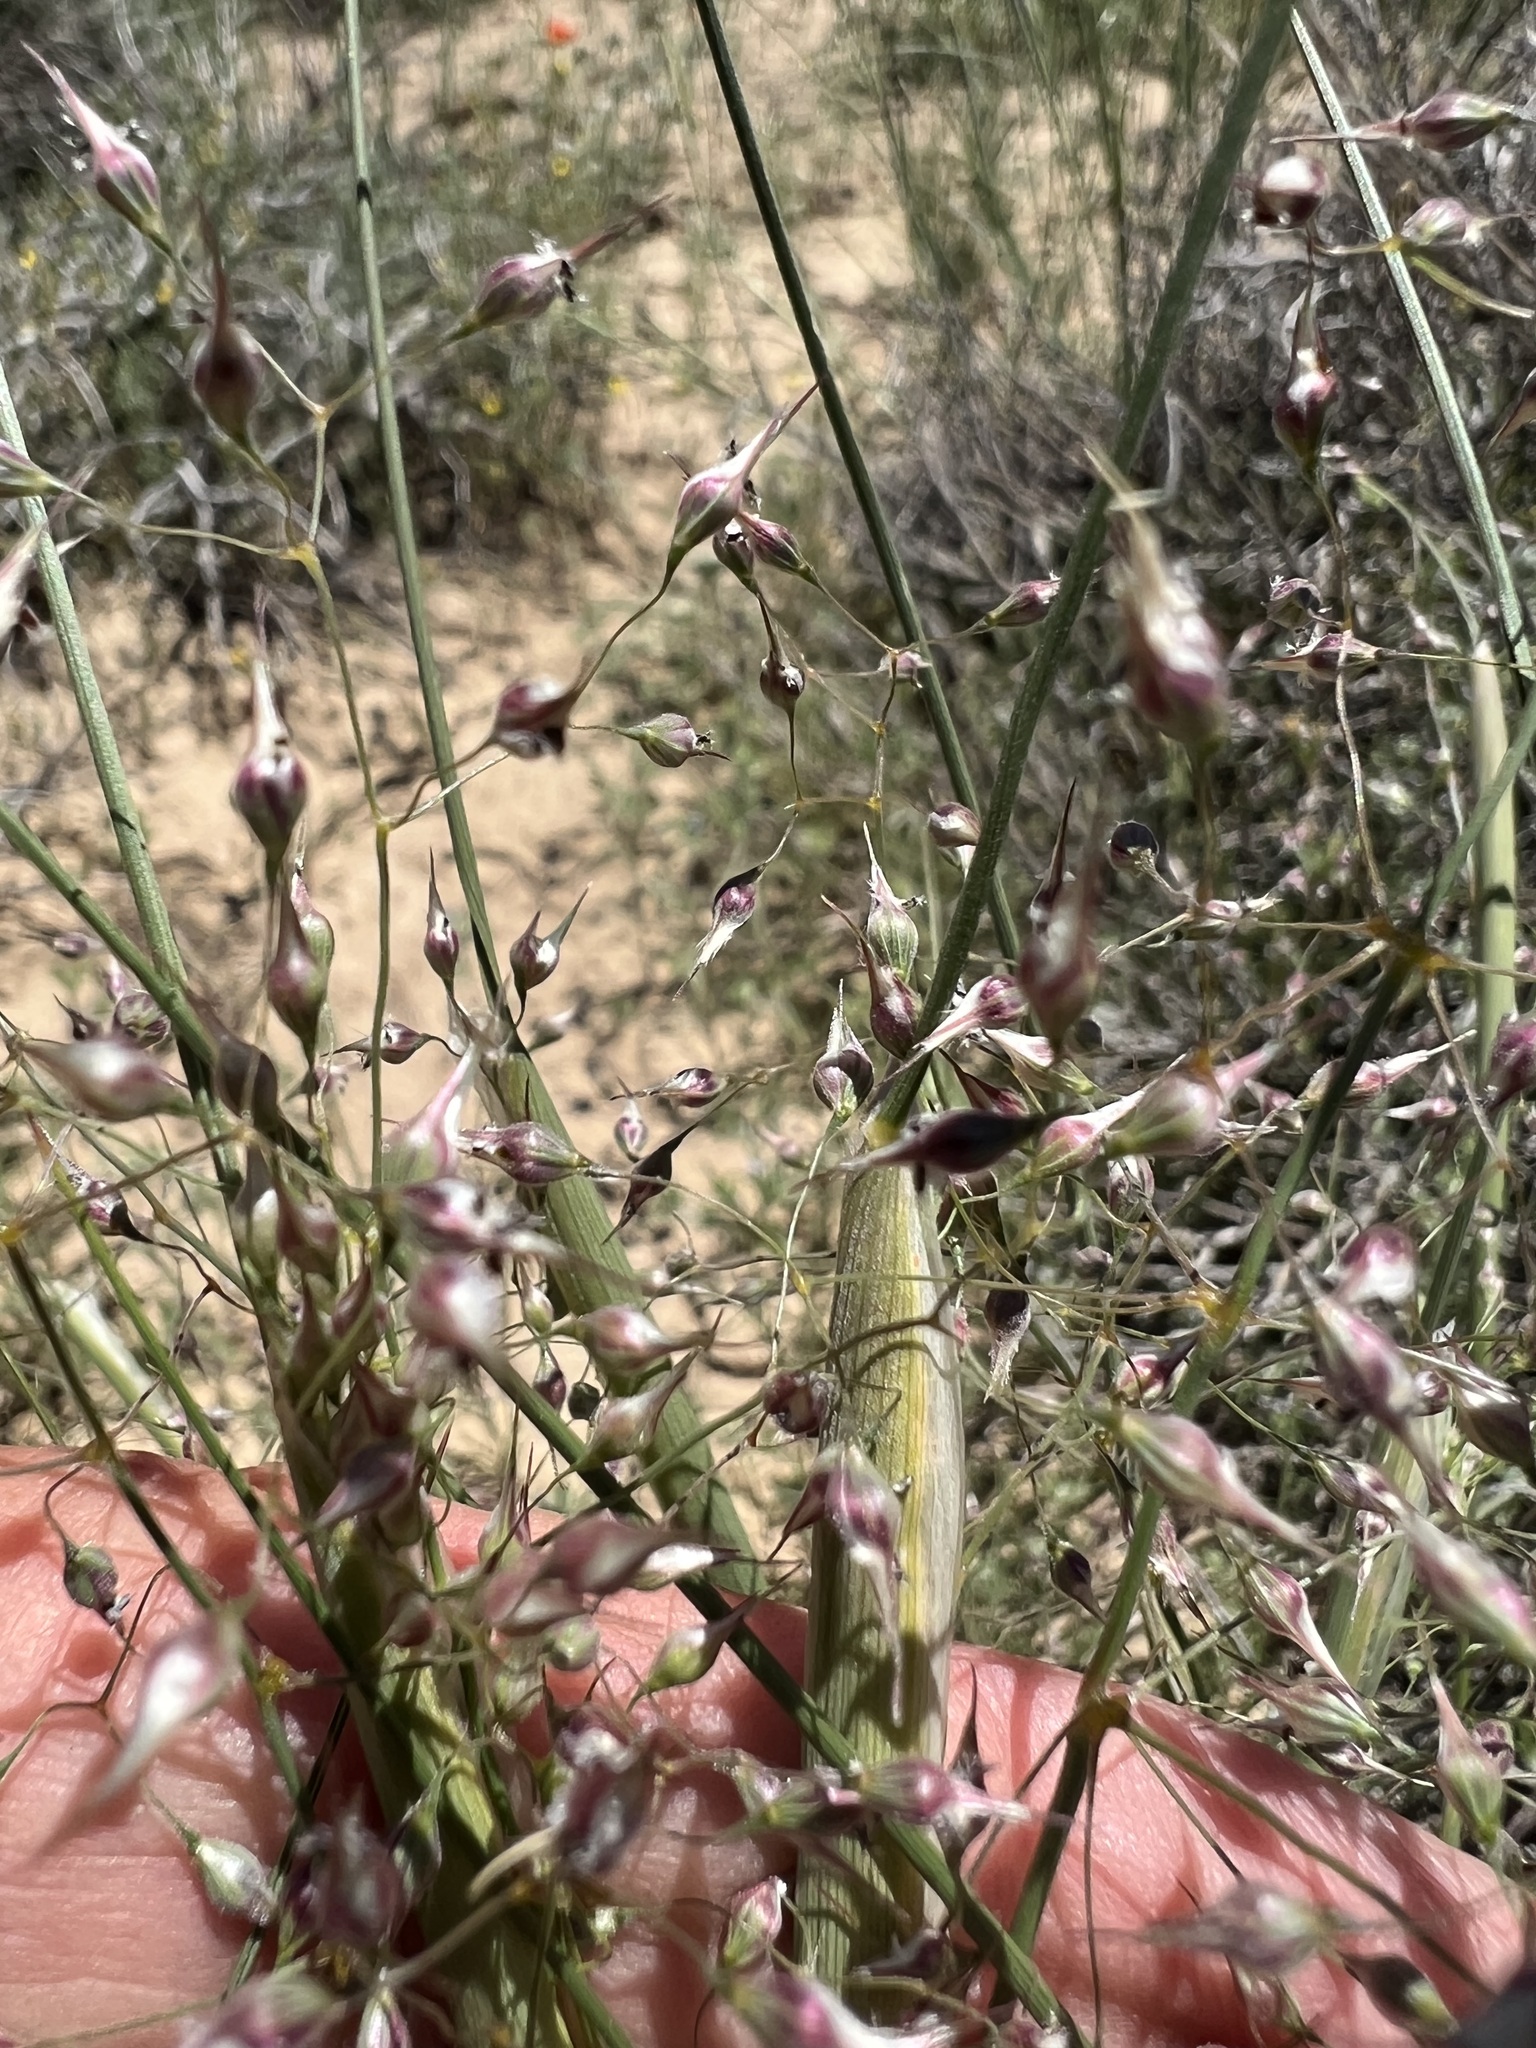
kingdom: Plantae
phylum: Tracheophyta
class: Liliopsida
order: Poales
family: Poaceae
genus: Eriocoma
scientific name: Eriocoma hymenoides
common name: Indian mountain ricegrass
